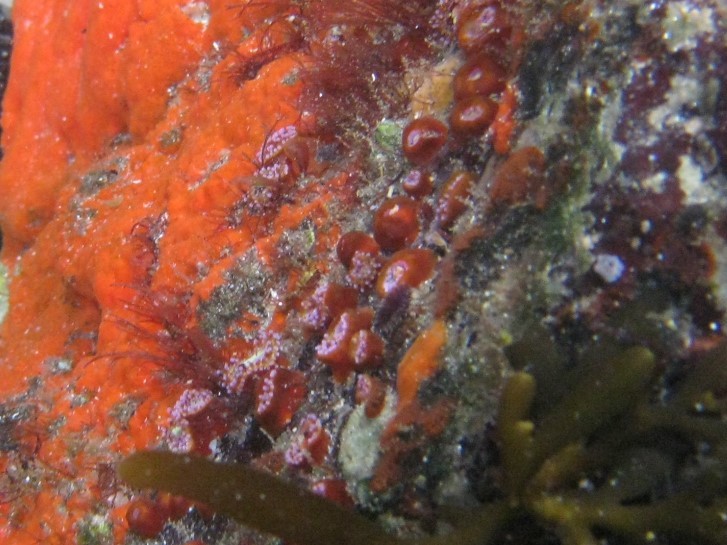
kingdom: Animalia
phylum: Cnidaria
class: Anthozoa
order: Corallimorpharia
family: Corallimorphidae
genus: Corynactis
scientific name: Corynactis australis
